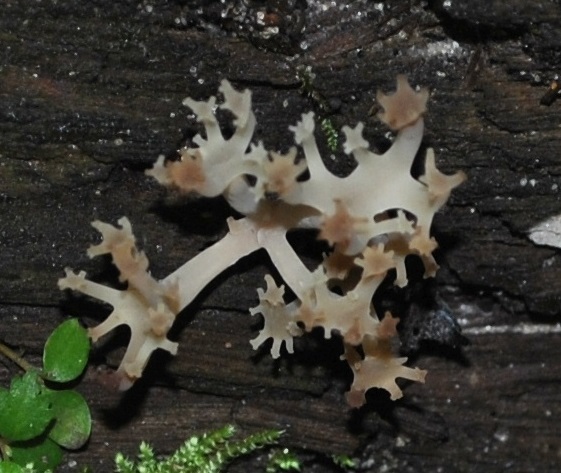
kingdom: Fungi
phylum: Basidiomycota
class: Agaricomycetes
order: Russulales
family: Auriscalpiaceae
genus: Artomyces
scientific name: Artomyces pyxidatus
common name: Crown-tipped coral fungus
